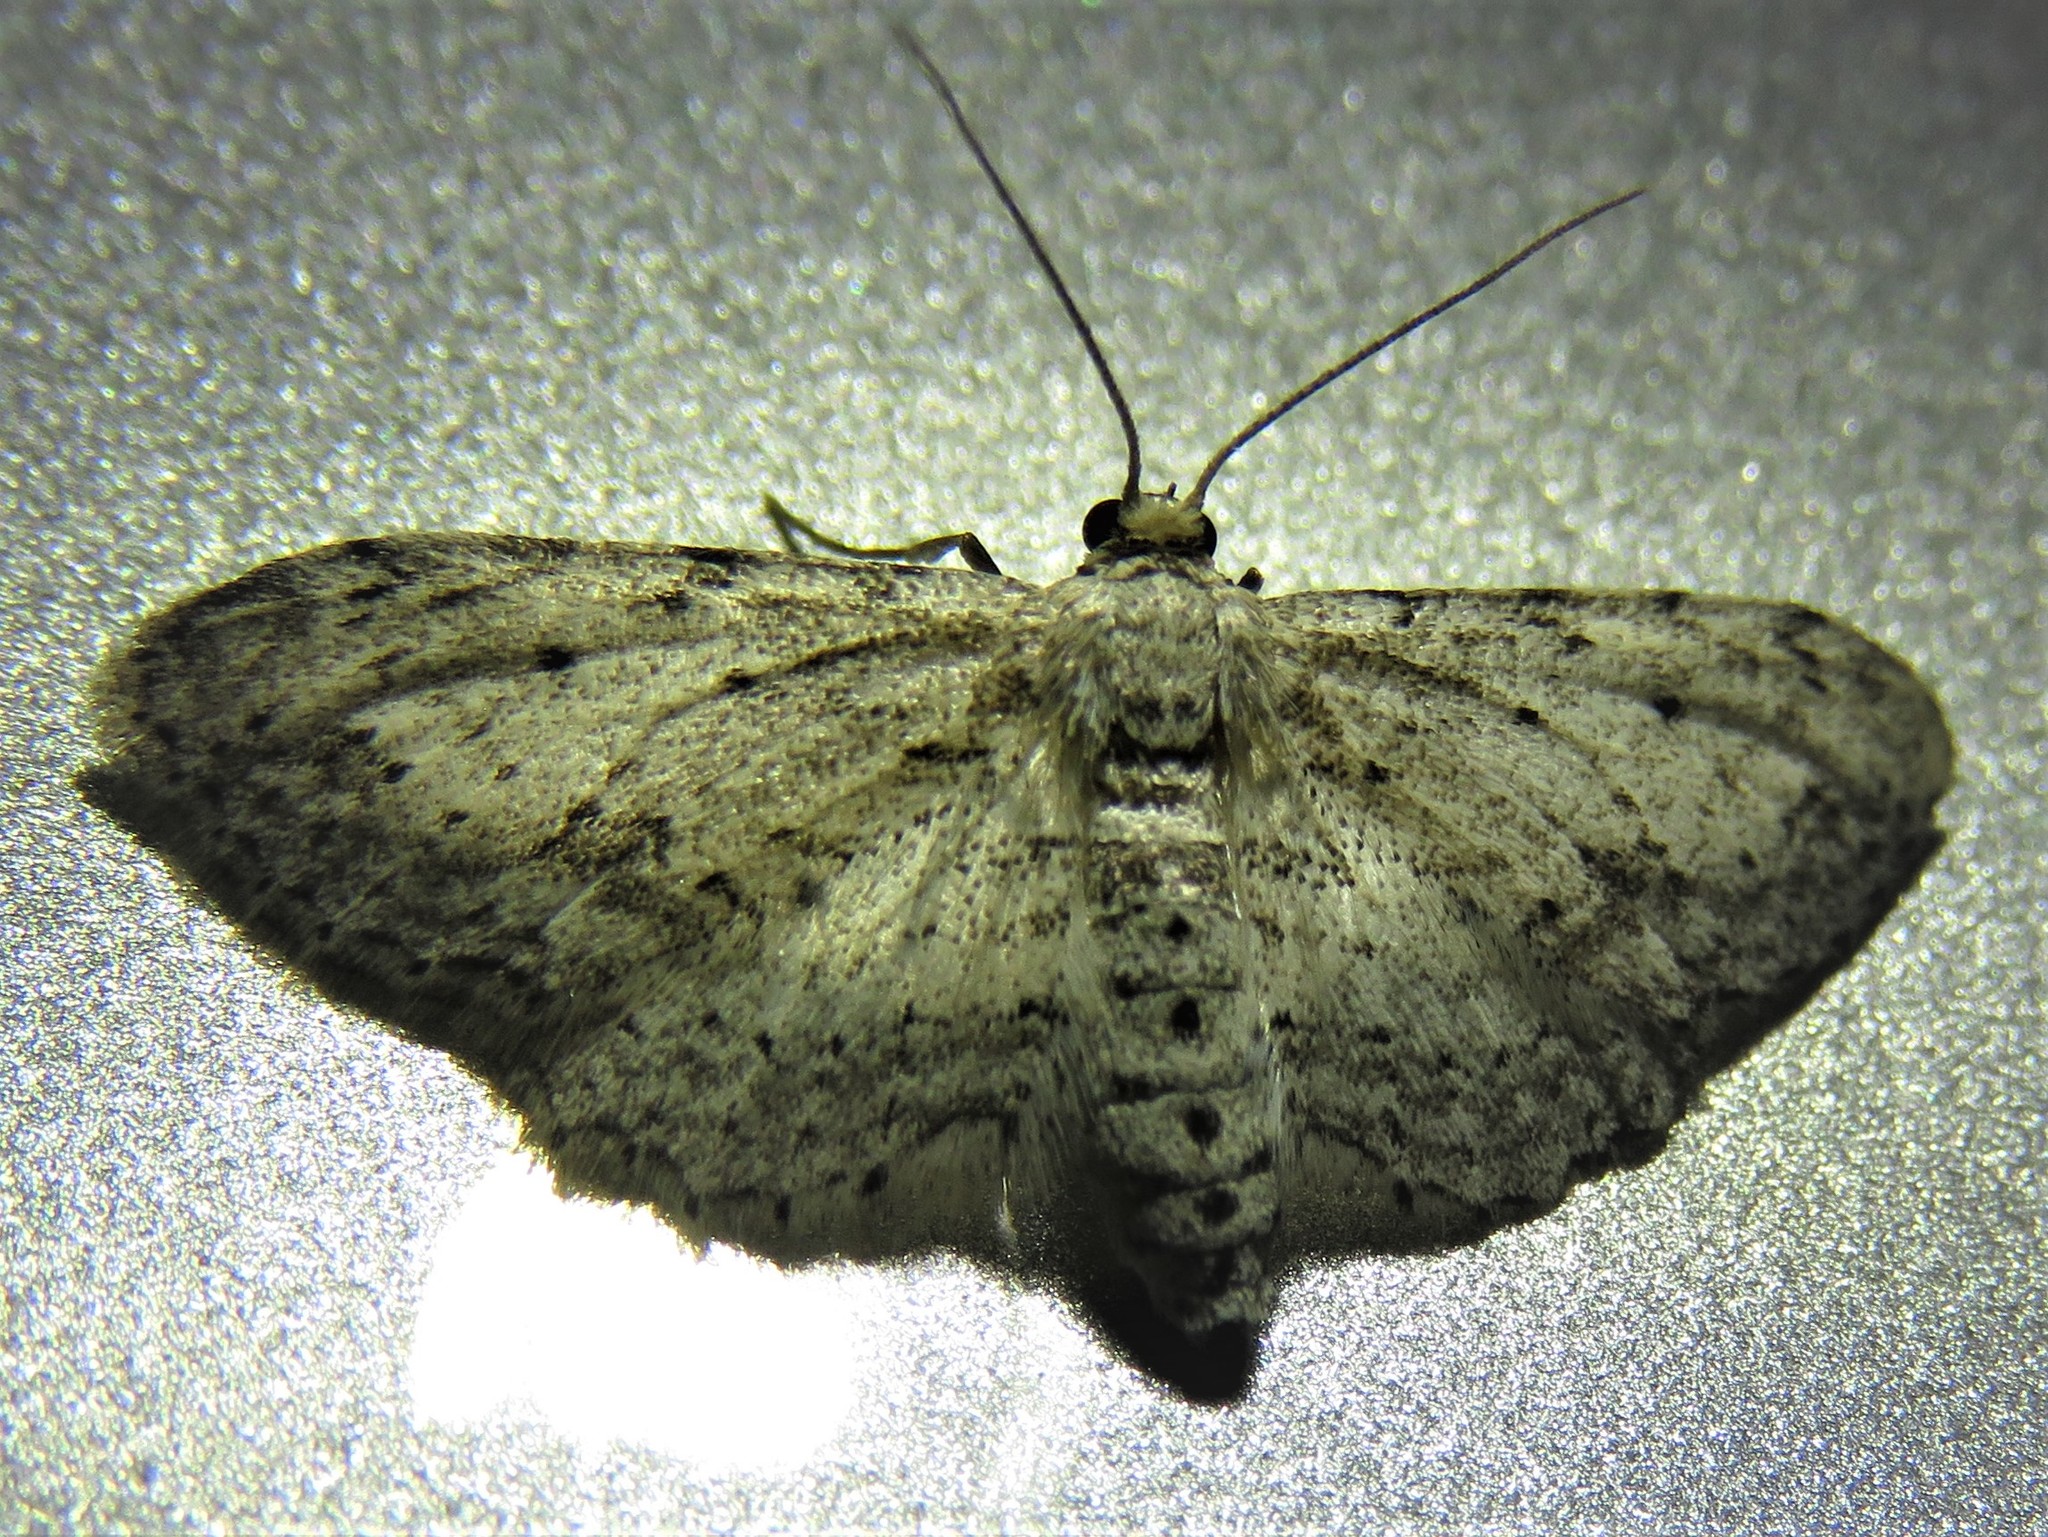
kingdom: Animalia
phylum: Arthropoda
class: Insecta
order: Lepidoptera
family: Geometridae
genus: Pimaphera
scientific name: Pimaphera sparsaria
